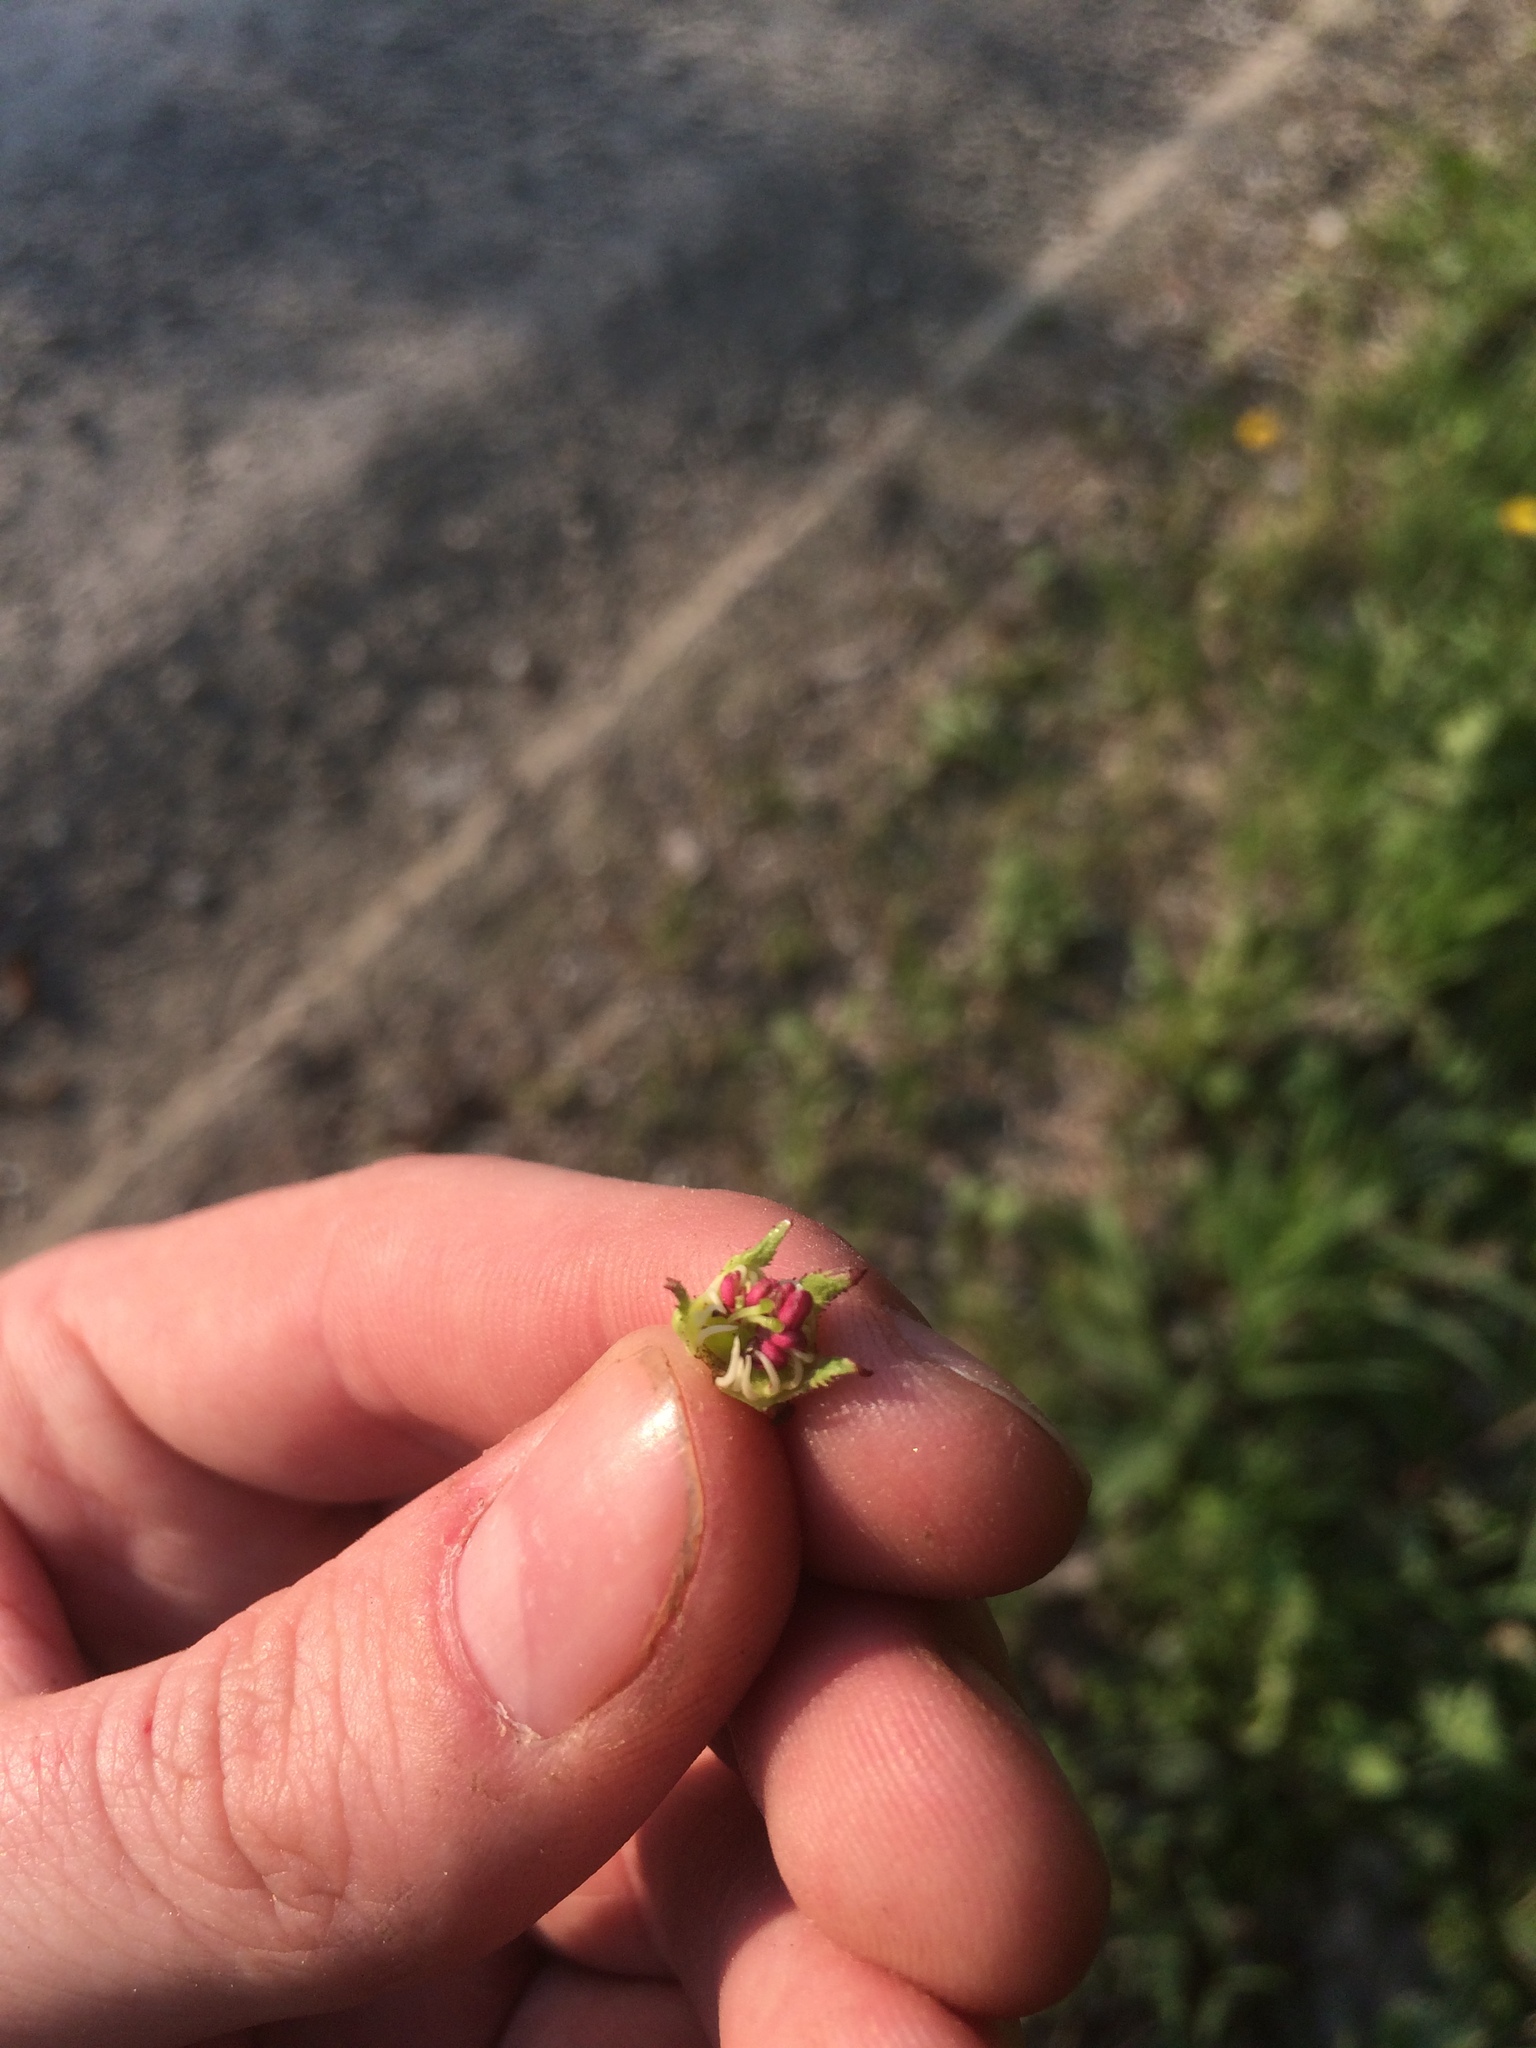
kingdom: Plantae
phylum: Tracheophyta
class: Magnoliopsida
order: Rosales
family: Rosaceae
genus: Crataegus
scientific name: Crataegus coccinioides
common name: Large-flowered cockspurthorn
